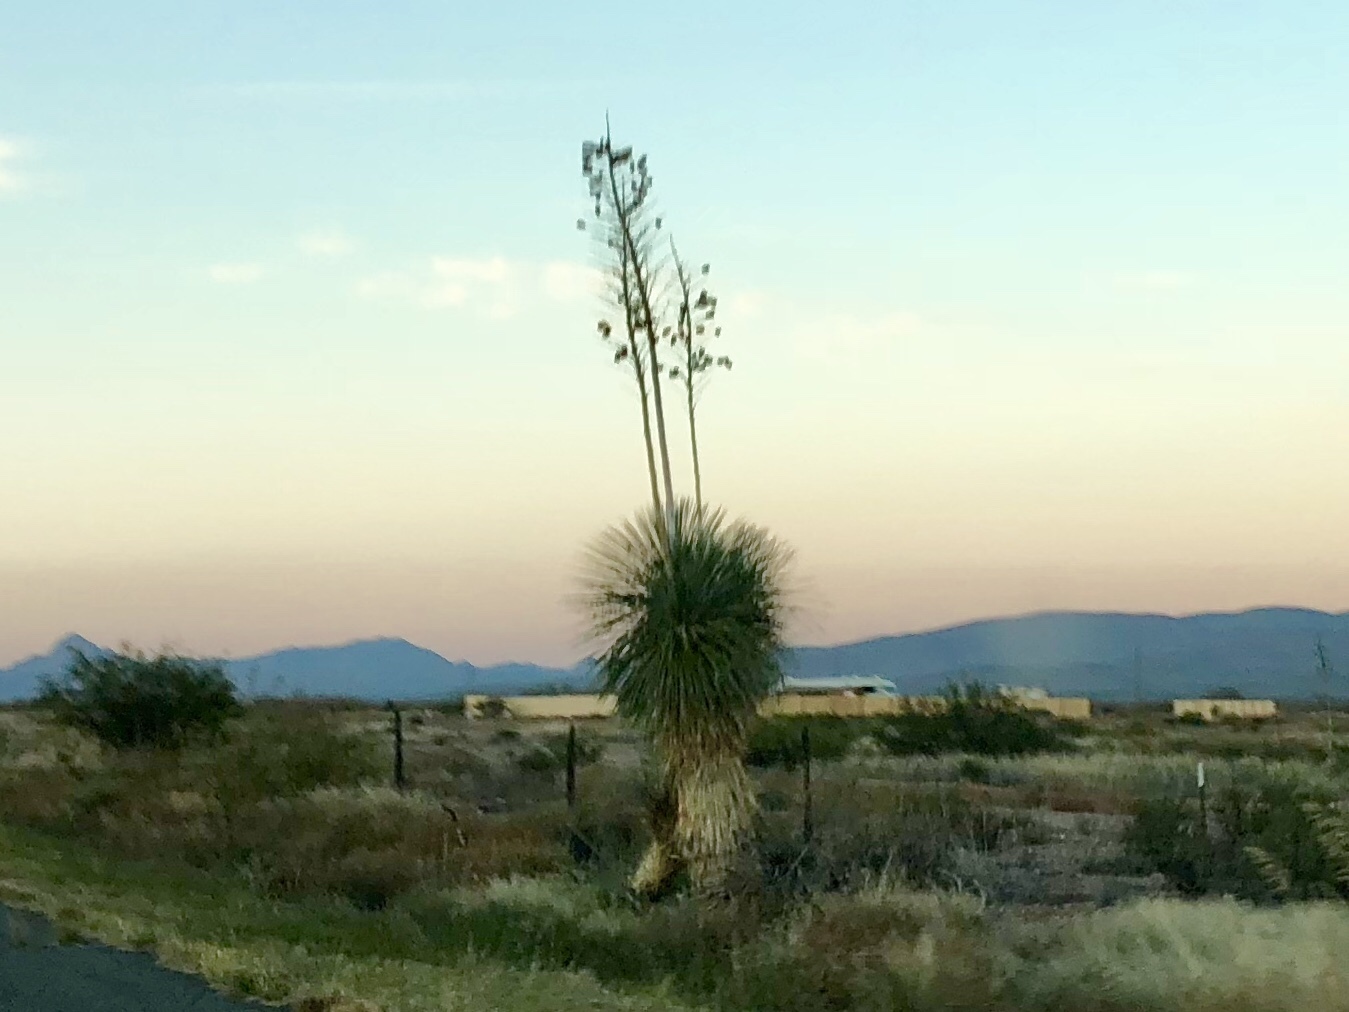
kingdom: Plantae
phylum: Tracheophyta
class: Liliopsida
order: Asparagales
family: Asparagaceae
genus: Yucca
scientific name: Yucca elata
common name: Palmella
